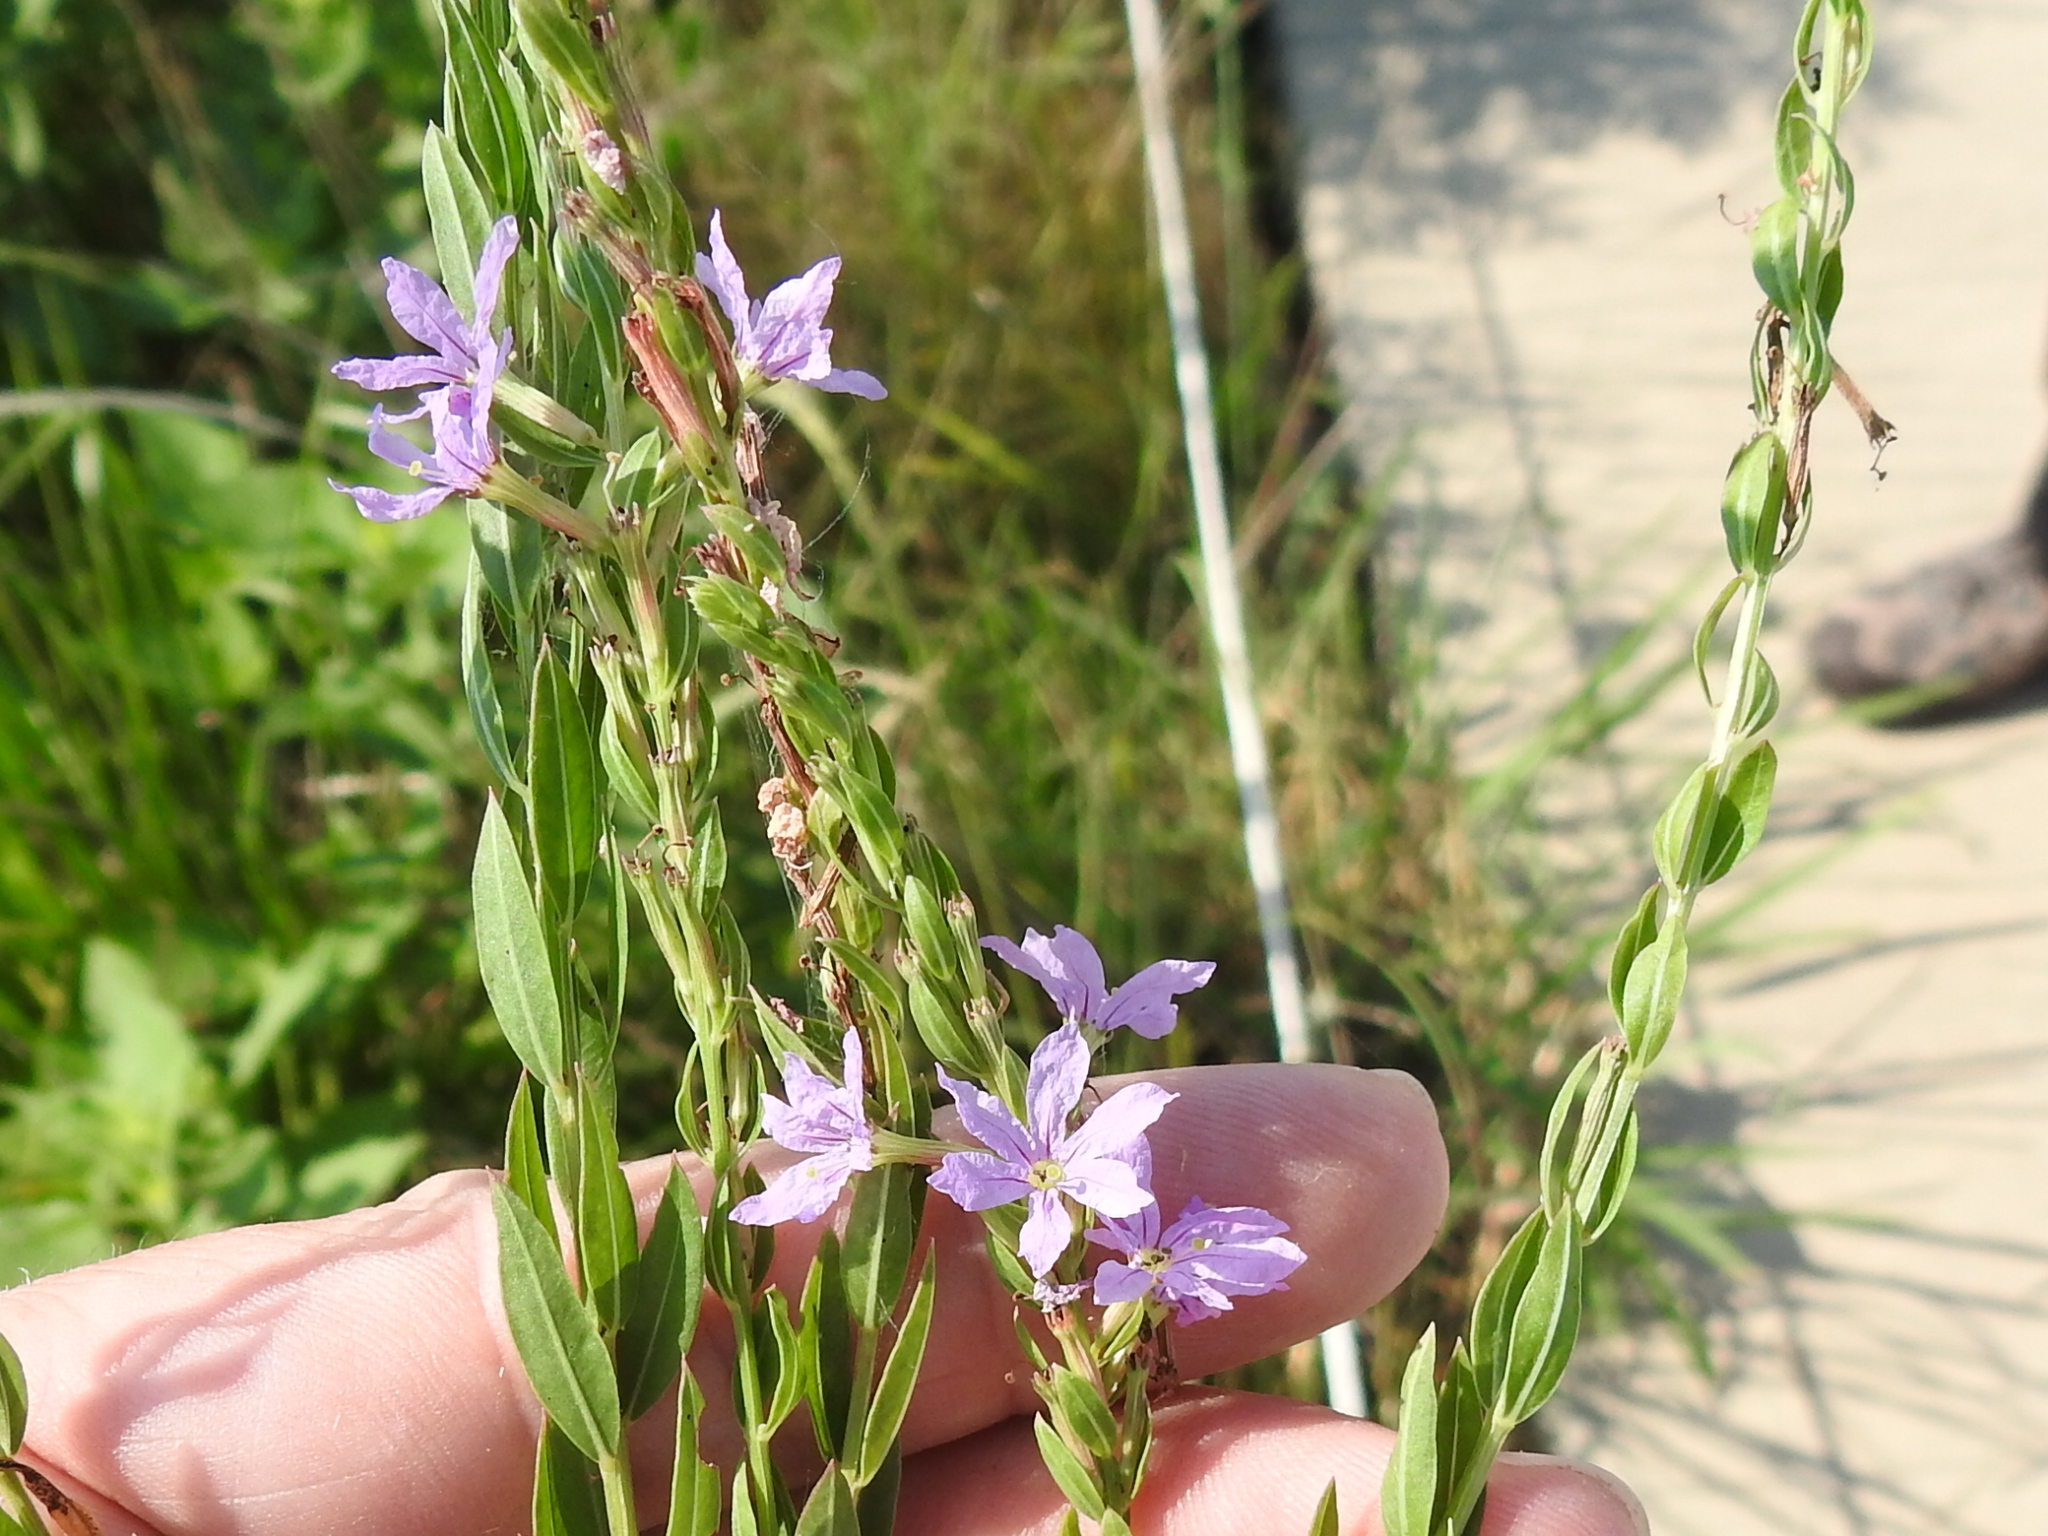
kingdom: Plantae
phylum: Tracheophyta
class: Magnoliopsida
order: Myrtales
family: Lythraceae
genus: Lythrum
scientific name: Lythrum alatum
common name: Winged loosestrife
